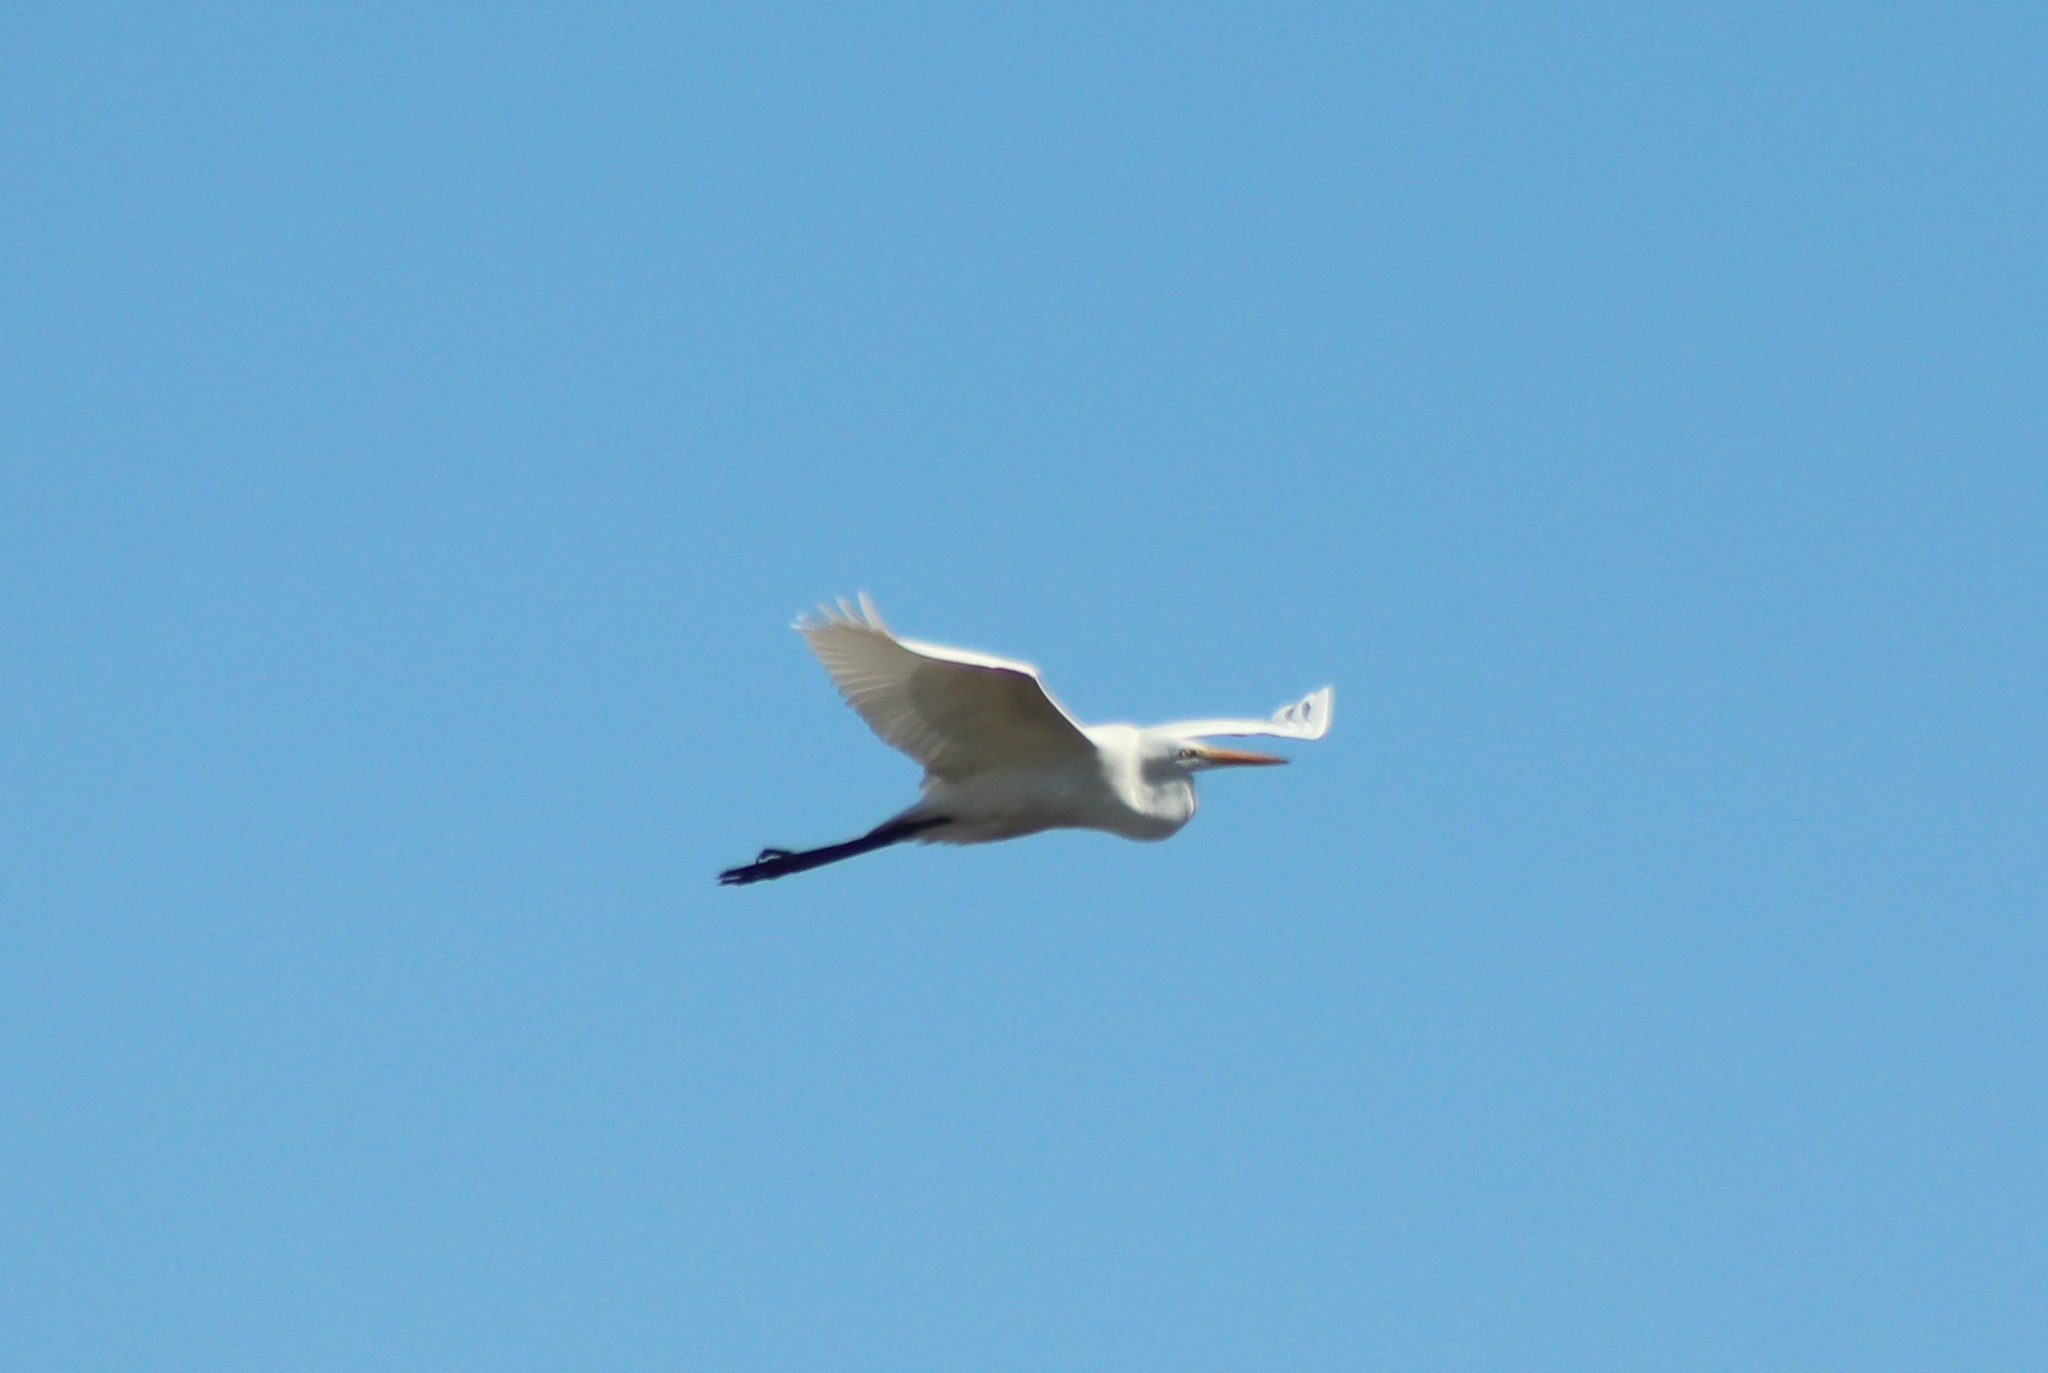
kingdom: Animalia
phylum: Chordata
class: Aves
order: Pelecaniformes
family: Ardeidae
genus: Ardea
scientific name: Ardea alba
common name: Great egret
